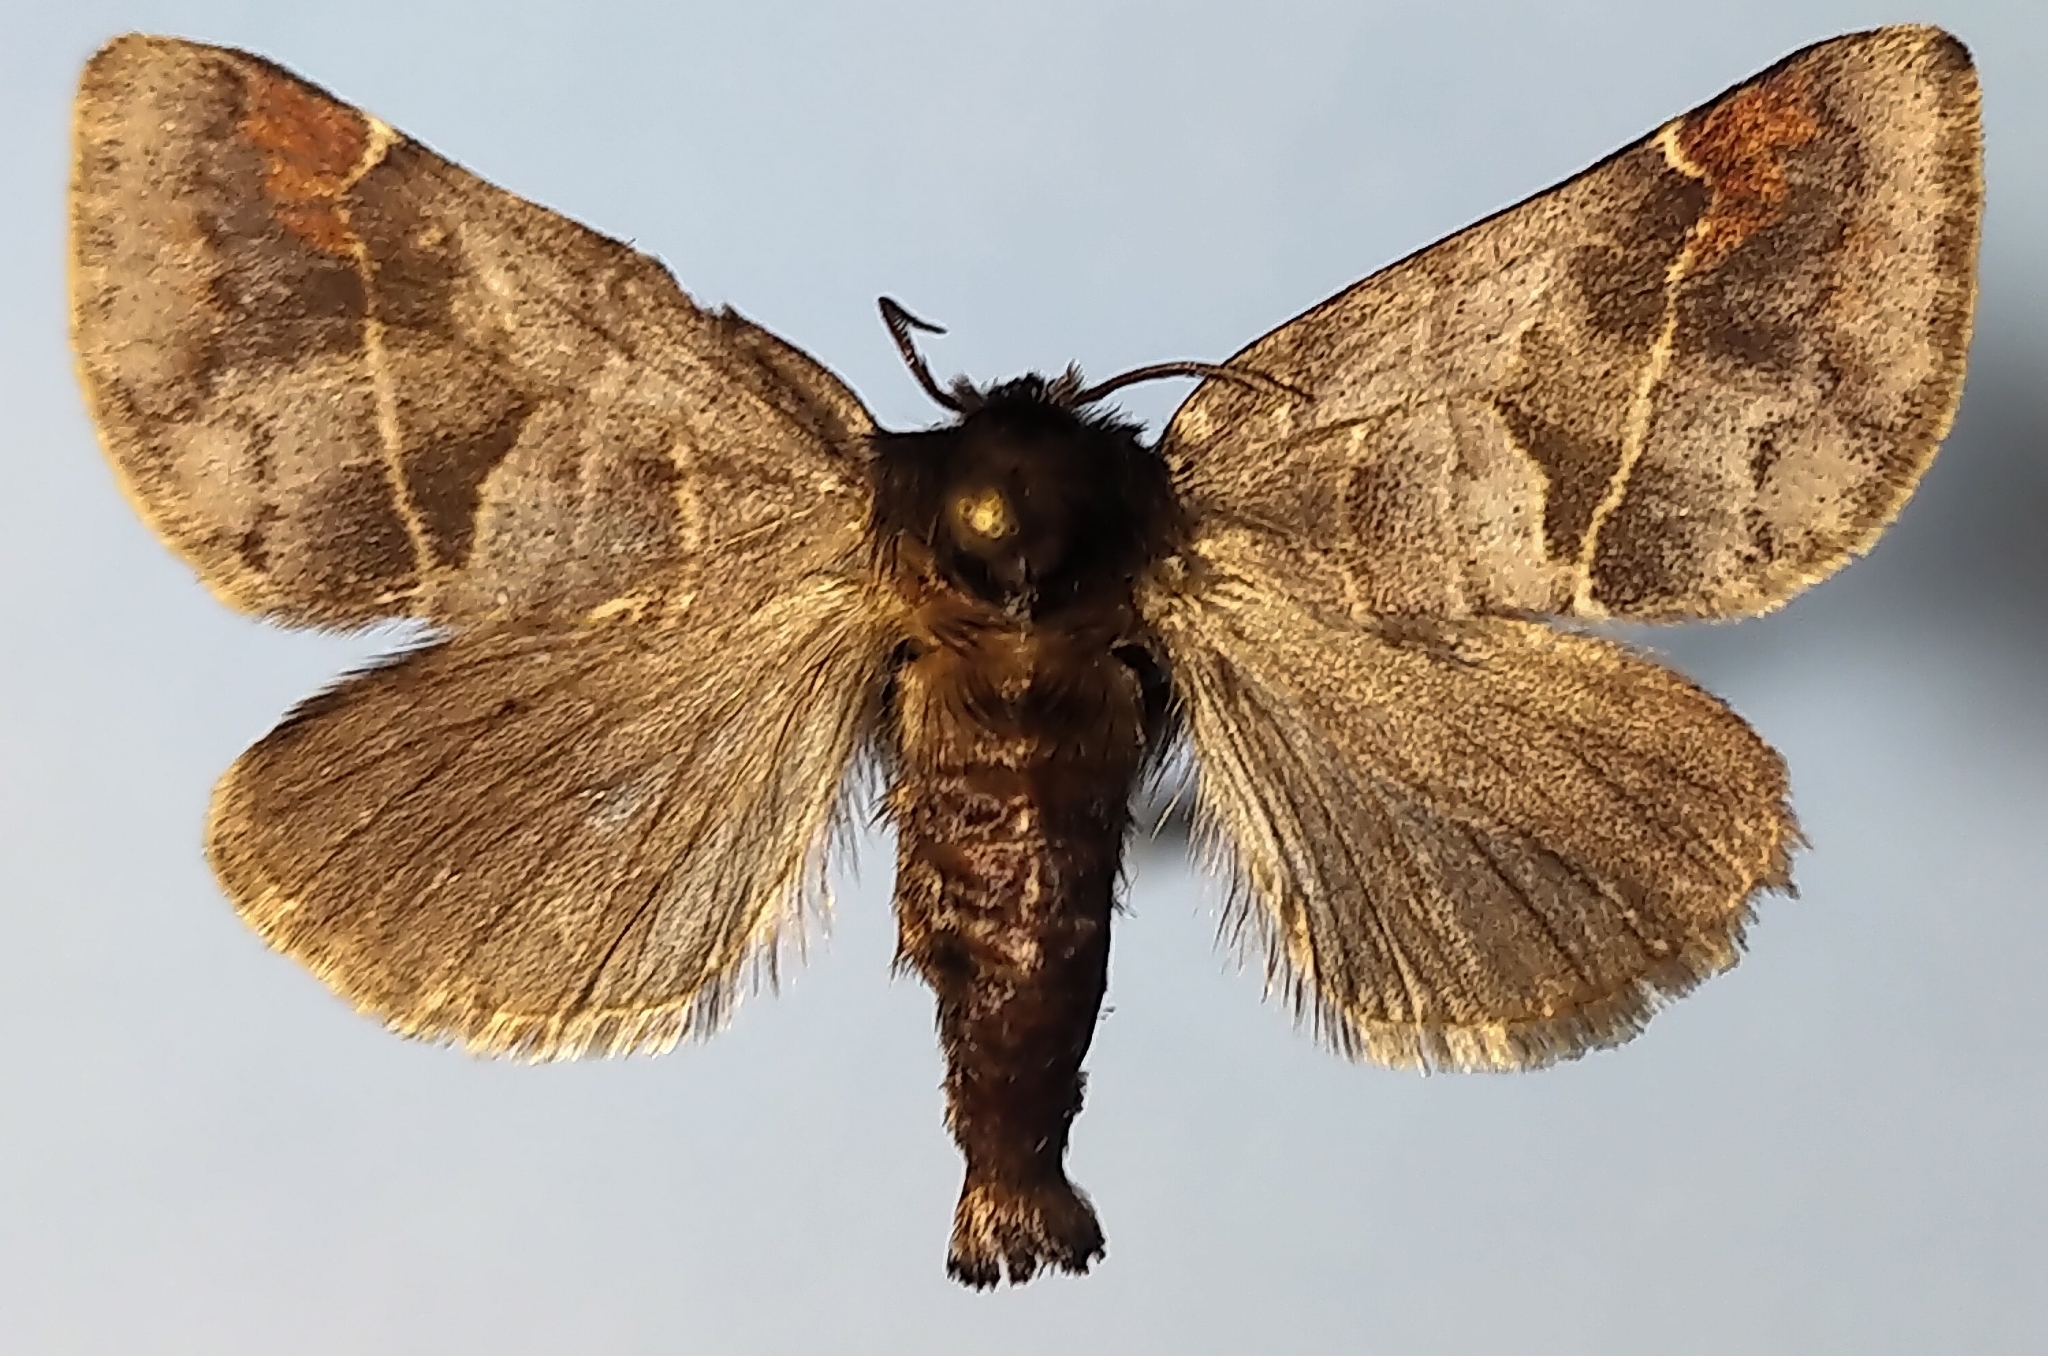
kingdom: Animalia
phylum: Arthropoda
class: Insecta
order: Lepidoptera
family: Notodontidae
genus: Clostera
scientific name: Clostera brucei
